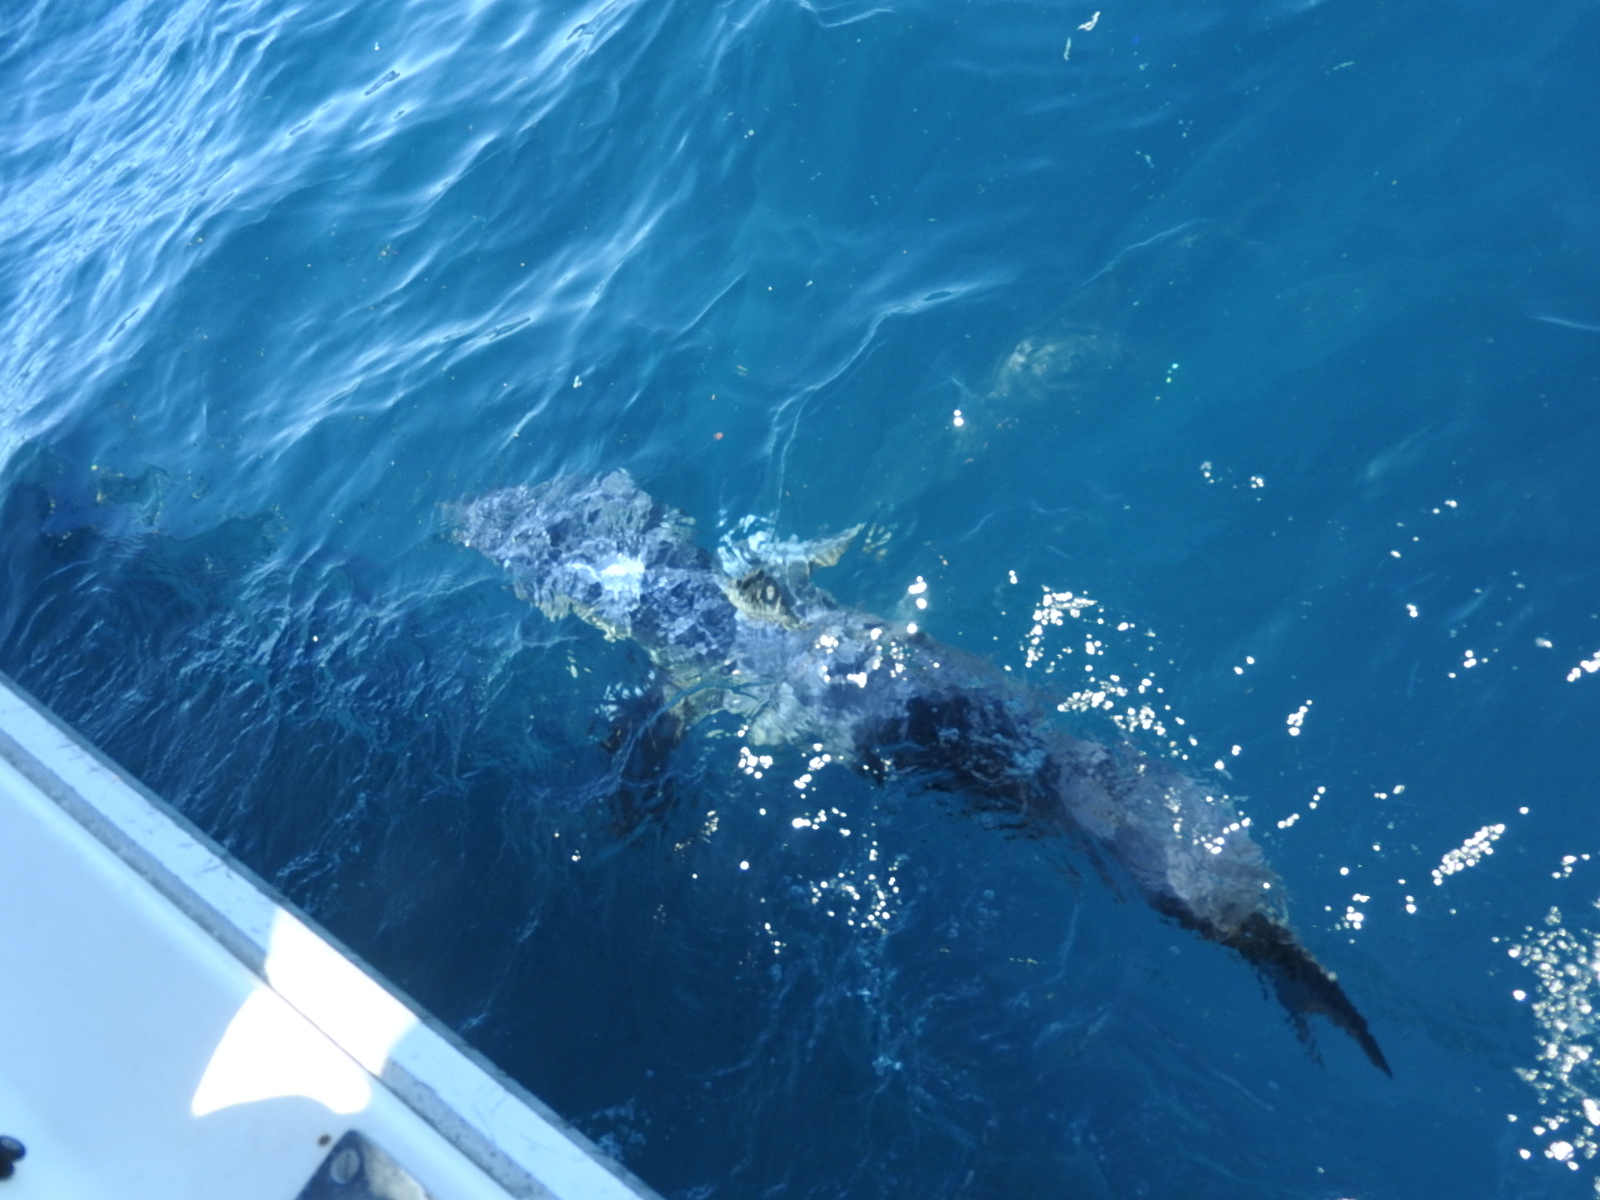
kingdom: Animalia
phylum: Chordata
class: Elasmobranchii
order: Lamniformes
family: Lamnidae
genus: Isurus
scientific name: Isurus oxyrinchus
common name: Shortfin mako
